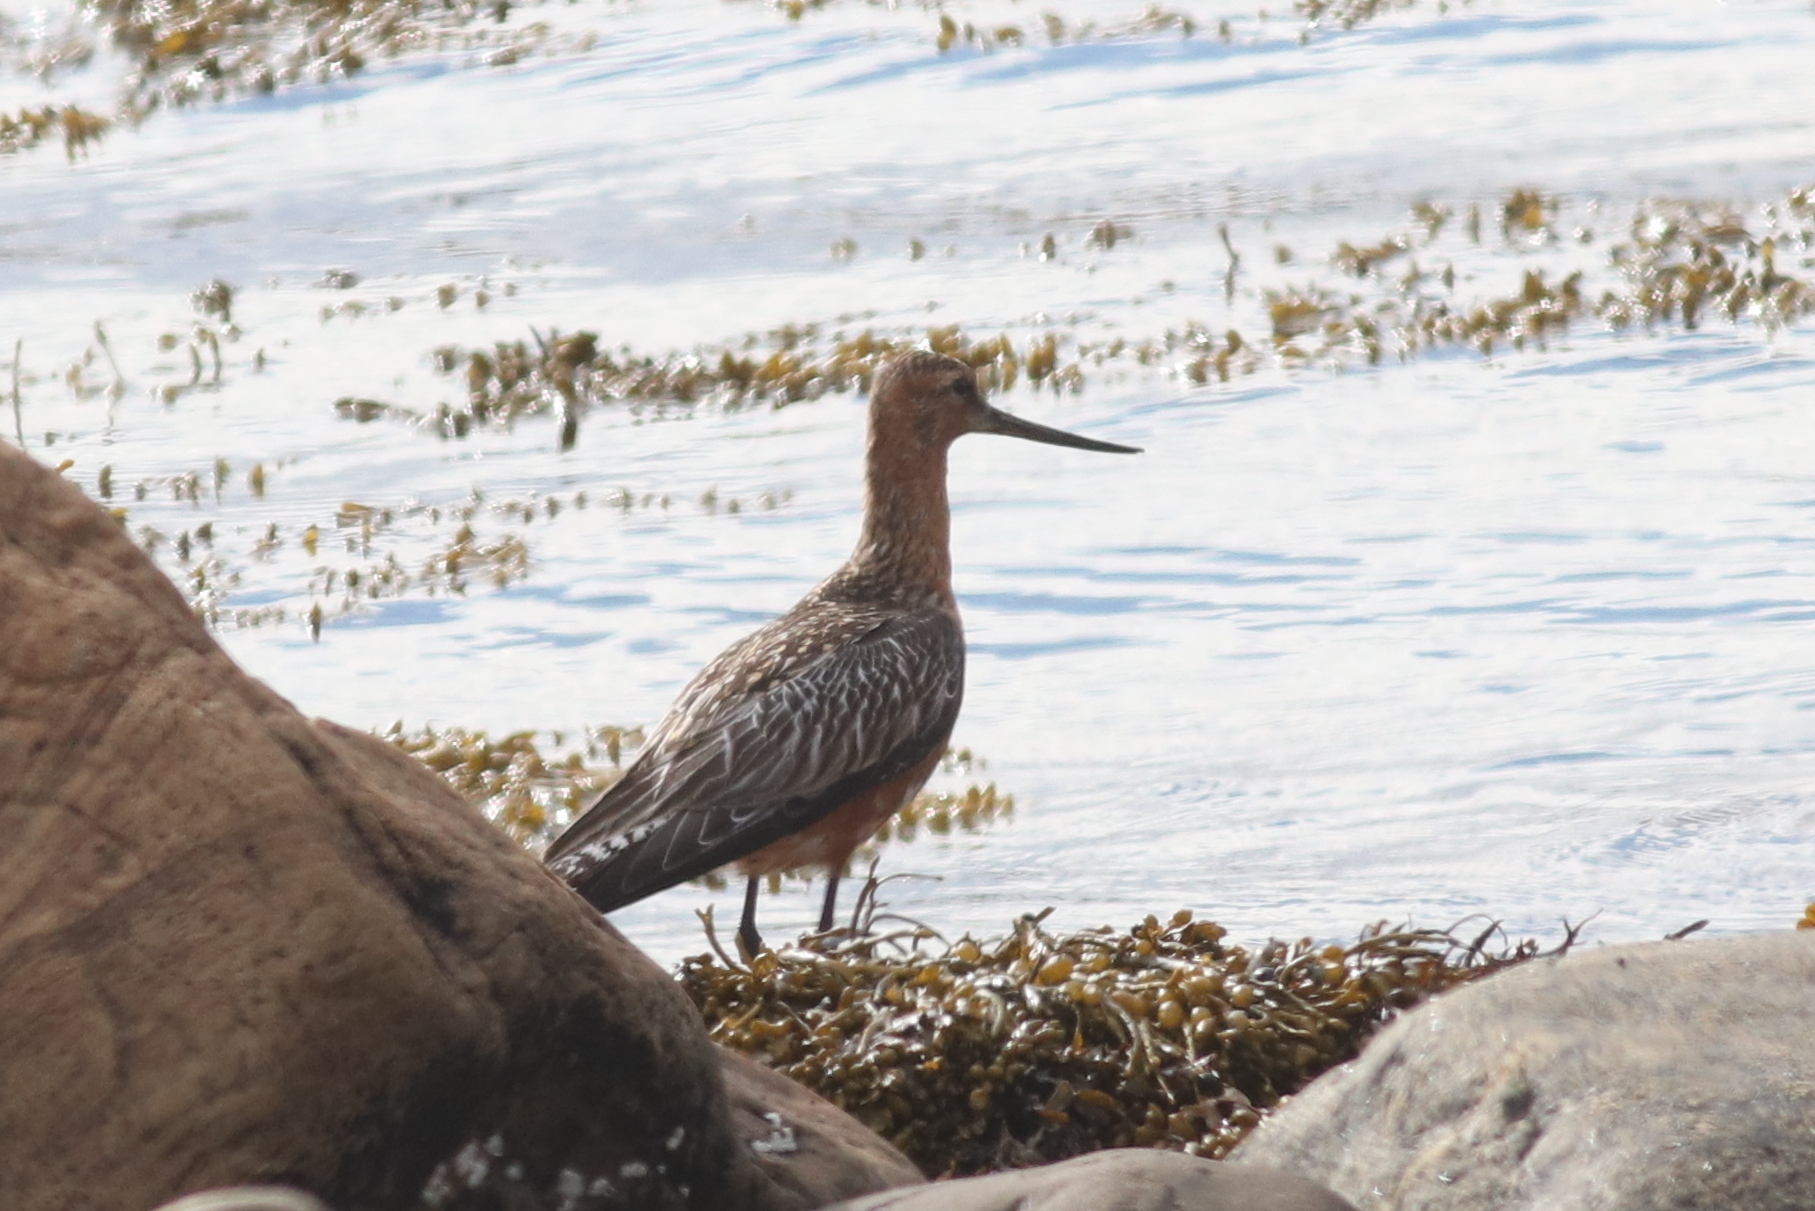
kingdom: Animalia
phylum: Chordata
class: Aves
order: Charadriiformes
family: Scolopacidae
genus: Limosa
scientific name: Limosa lapponica
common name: Bar-tailed godwit
